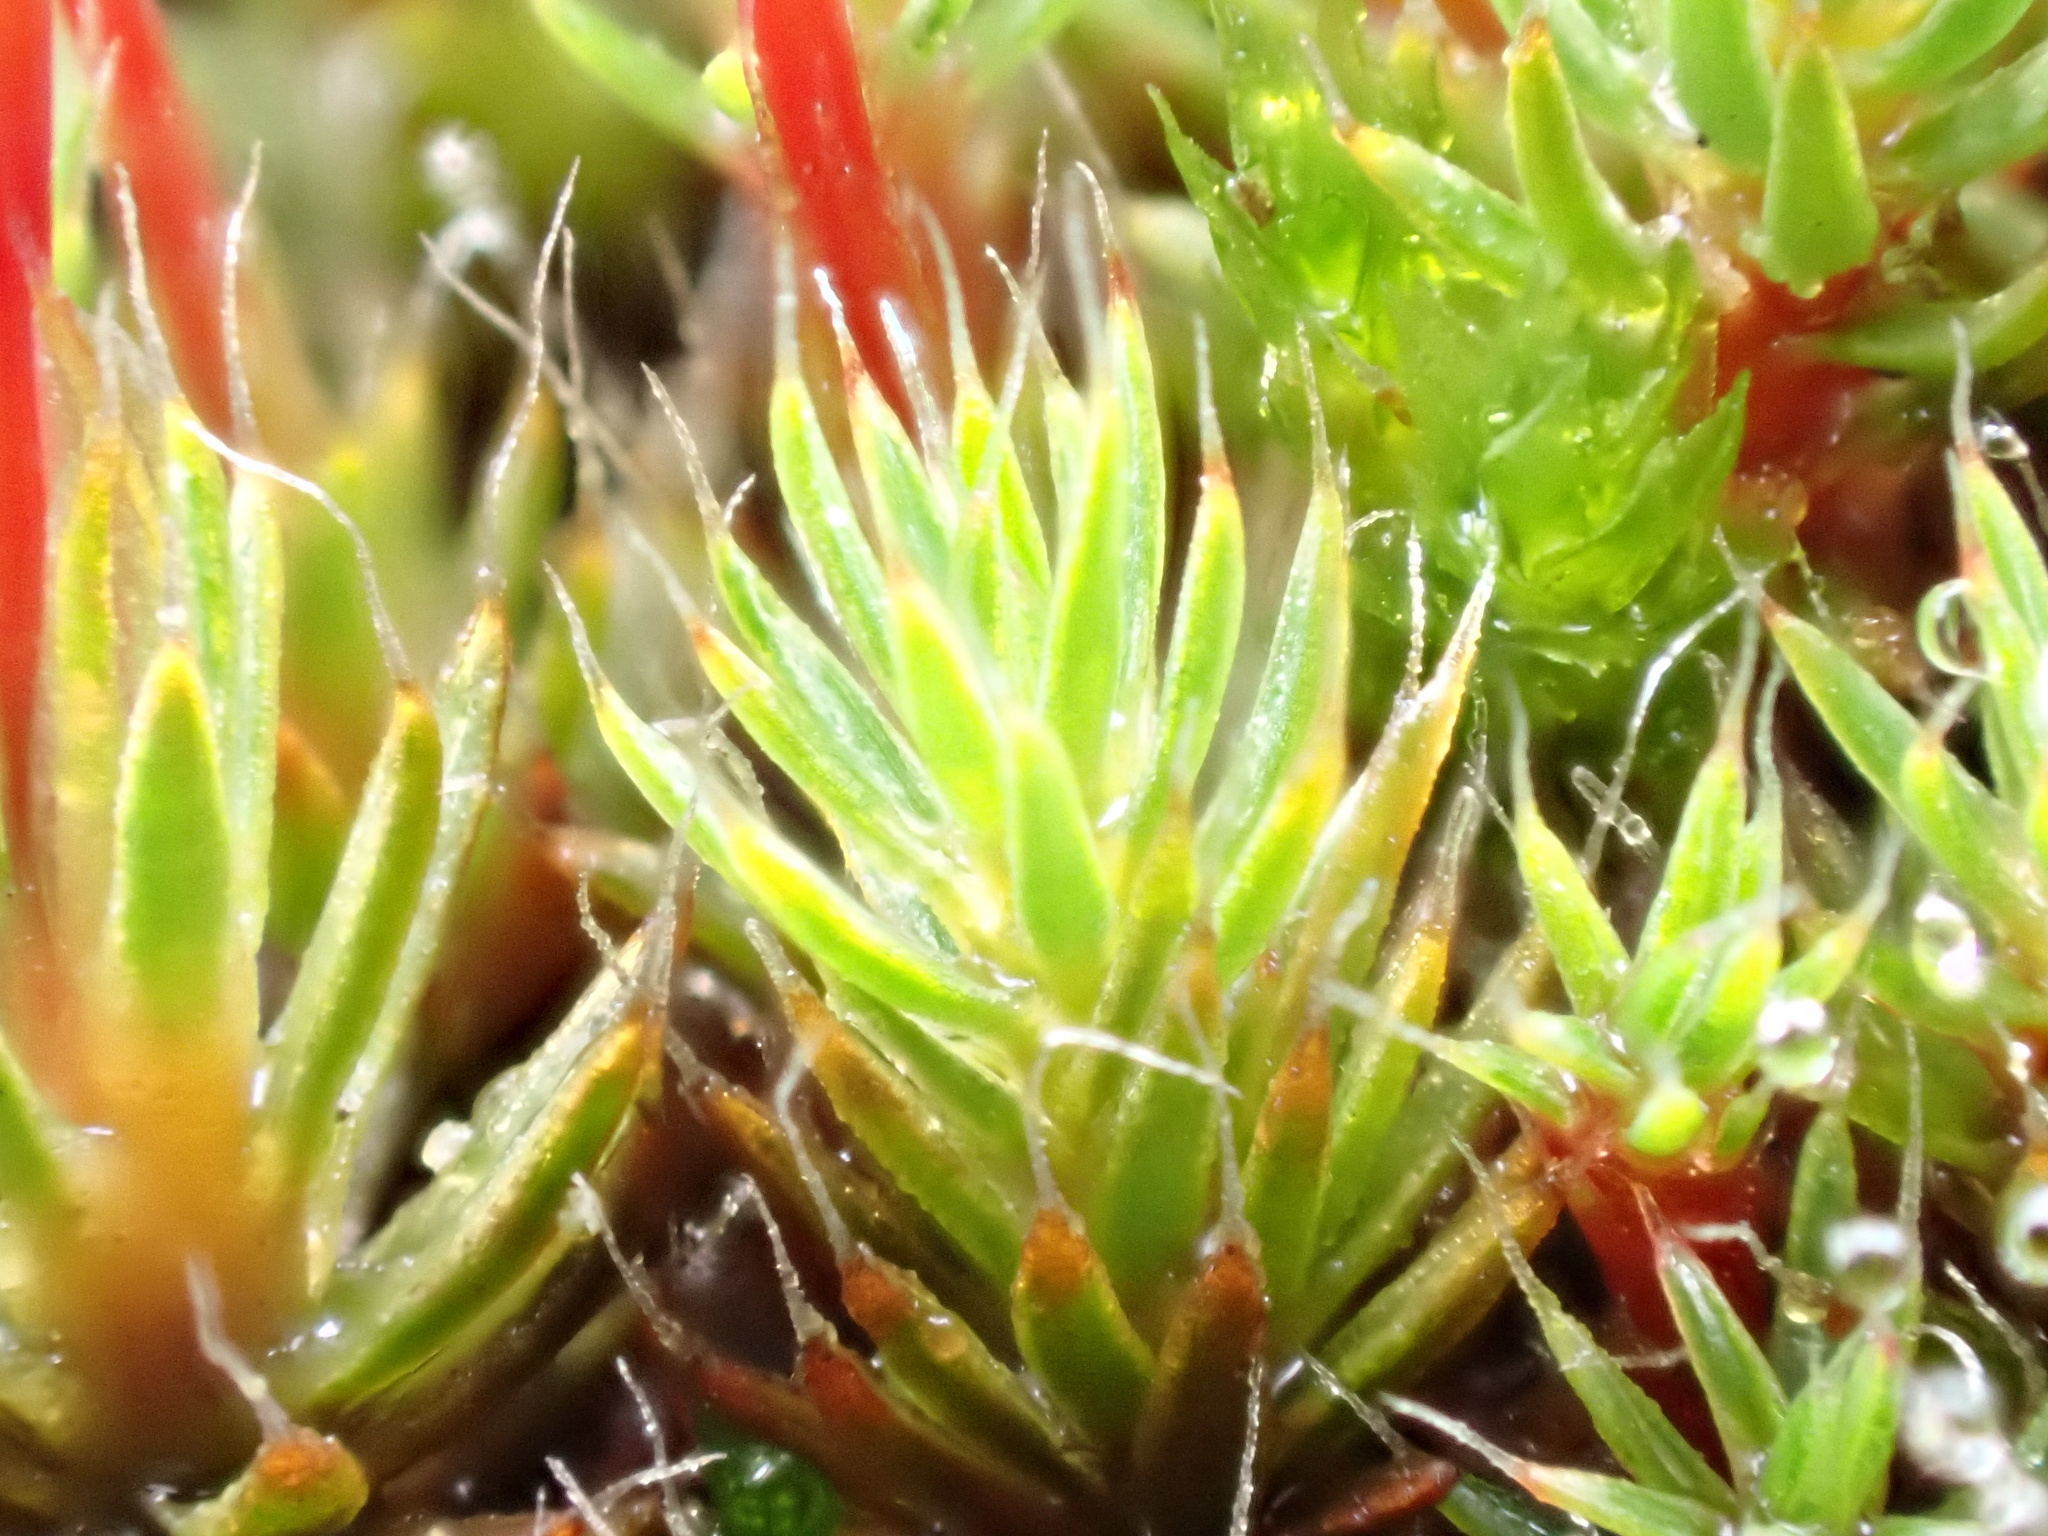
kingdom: Plantae
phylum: Bryophyta
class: Polytrichopsida
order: Polytrichales
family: Polytrichaceae
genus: Polytrichum
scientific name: Polytrichum piliferum
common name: Bristly haircap
